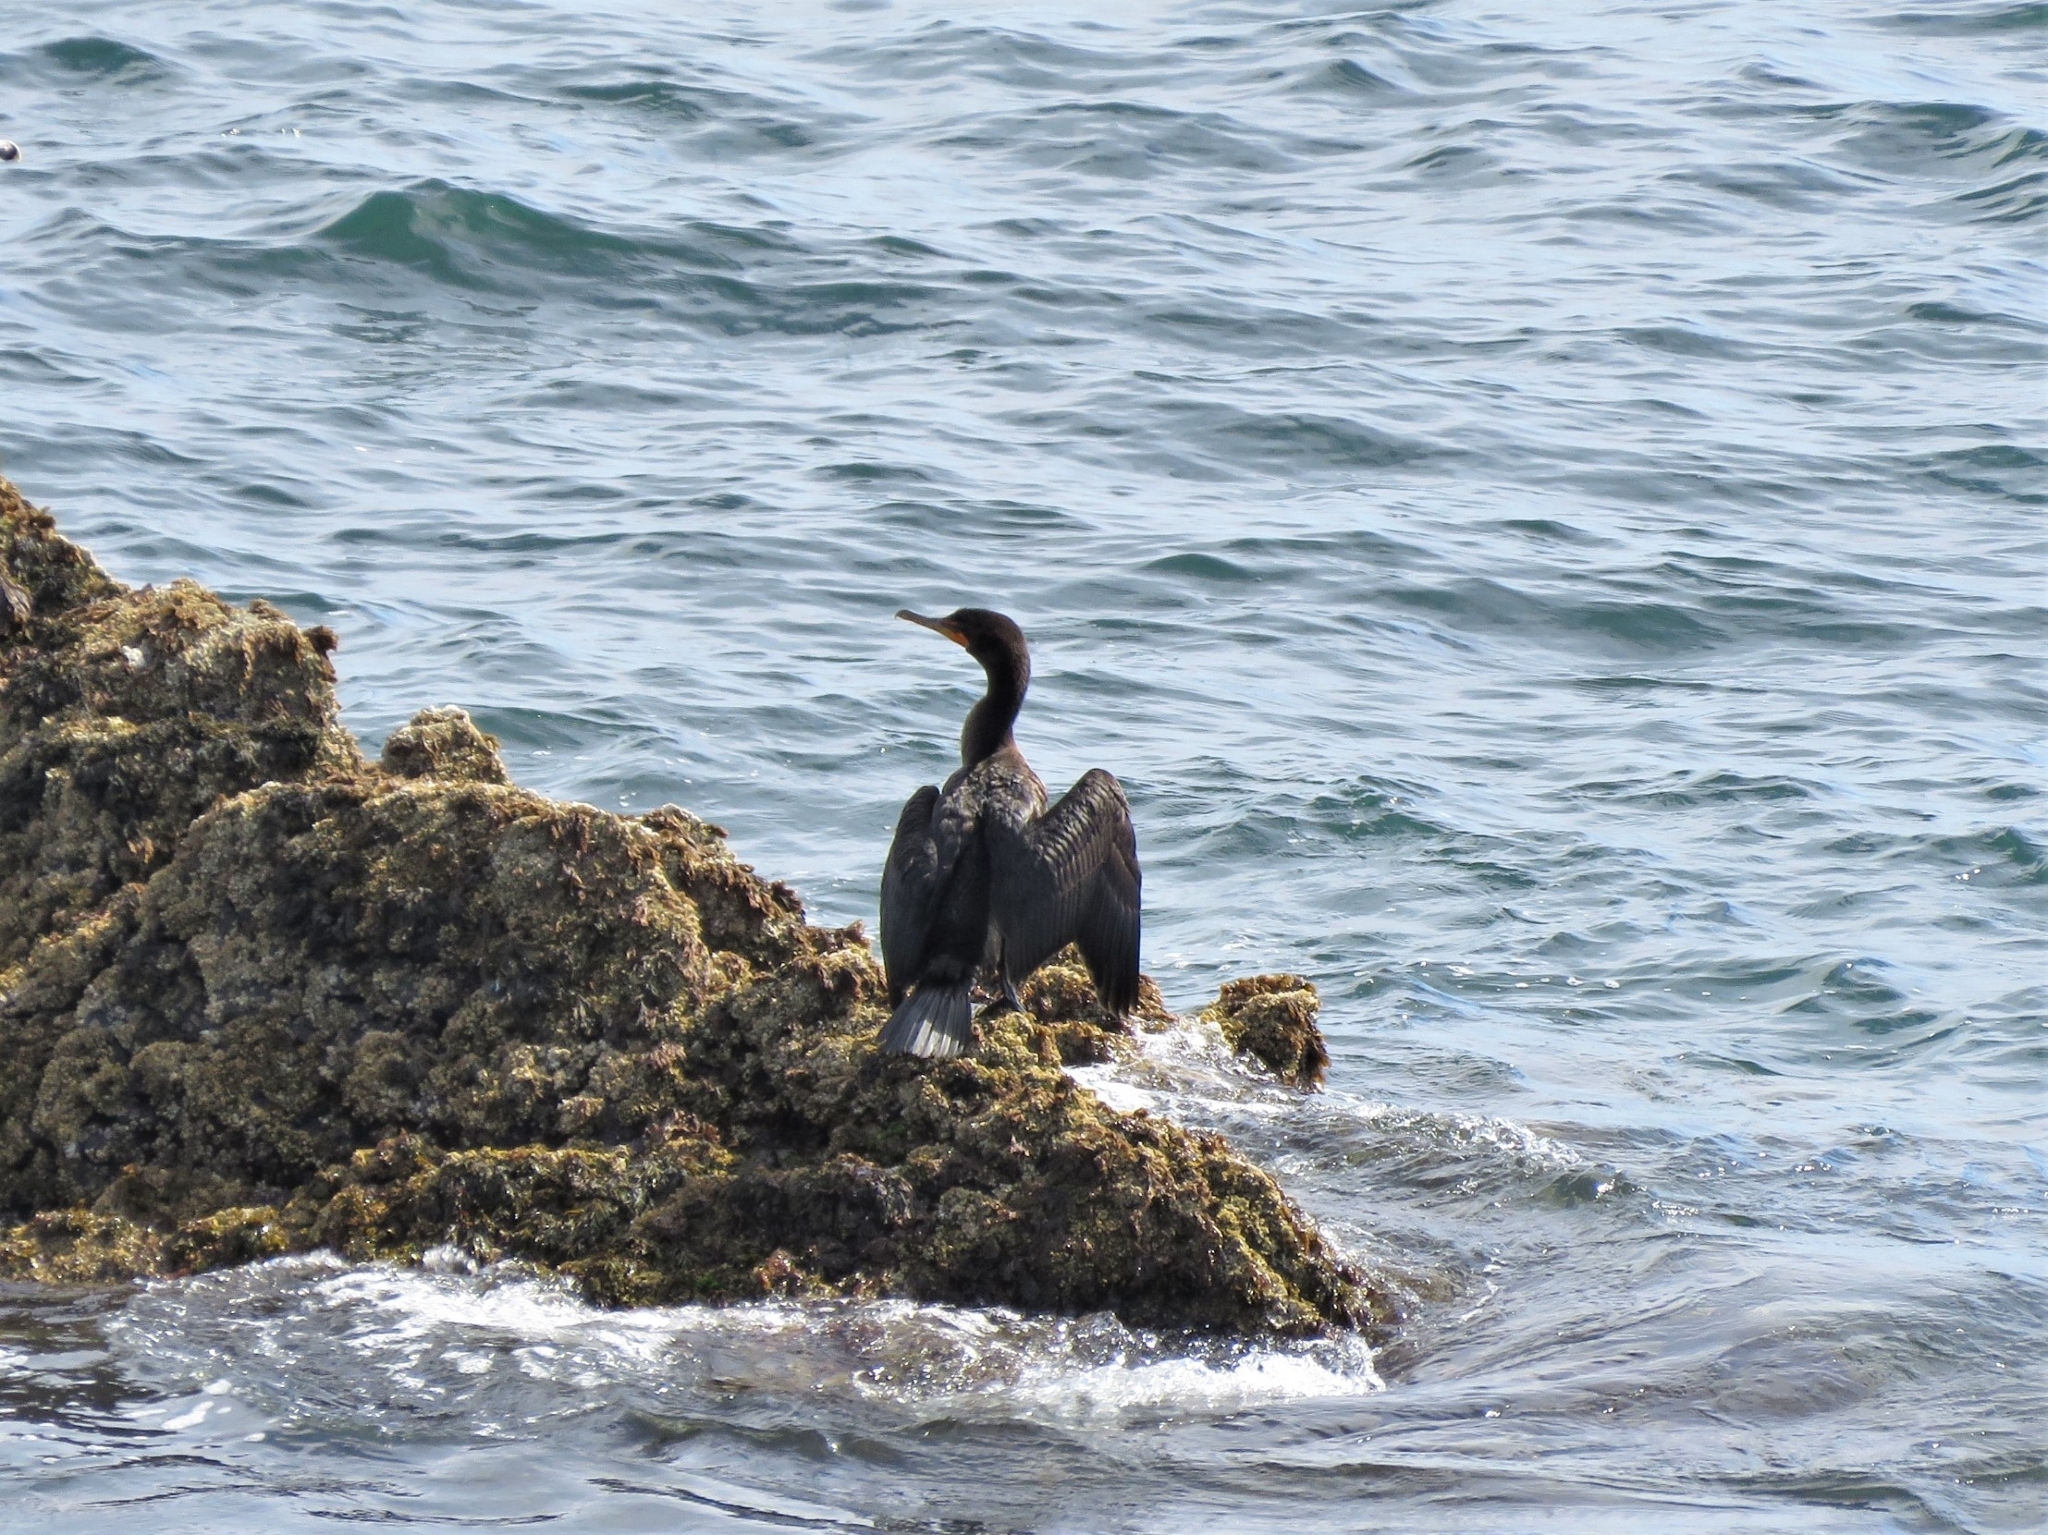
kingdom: Animalia
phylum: Chordata
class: Aves
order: Suliformes
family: Phalacrocoracidae
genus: Phalacrocorax
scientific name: Phalacrocorax auritus
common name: Double-crested cormorant
